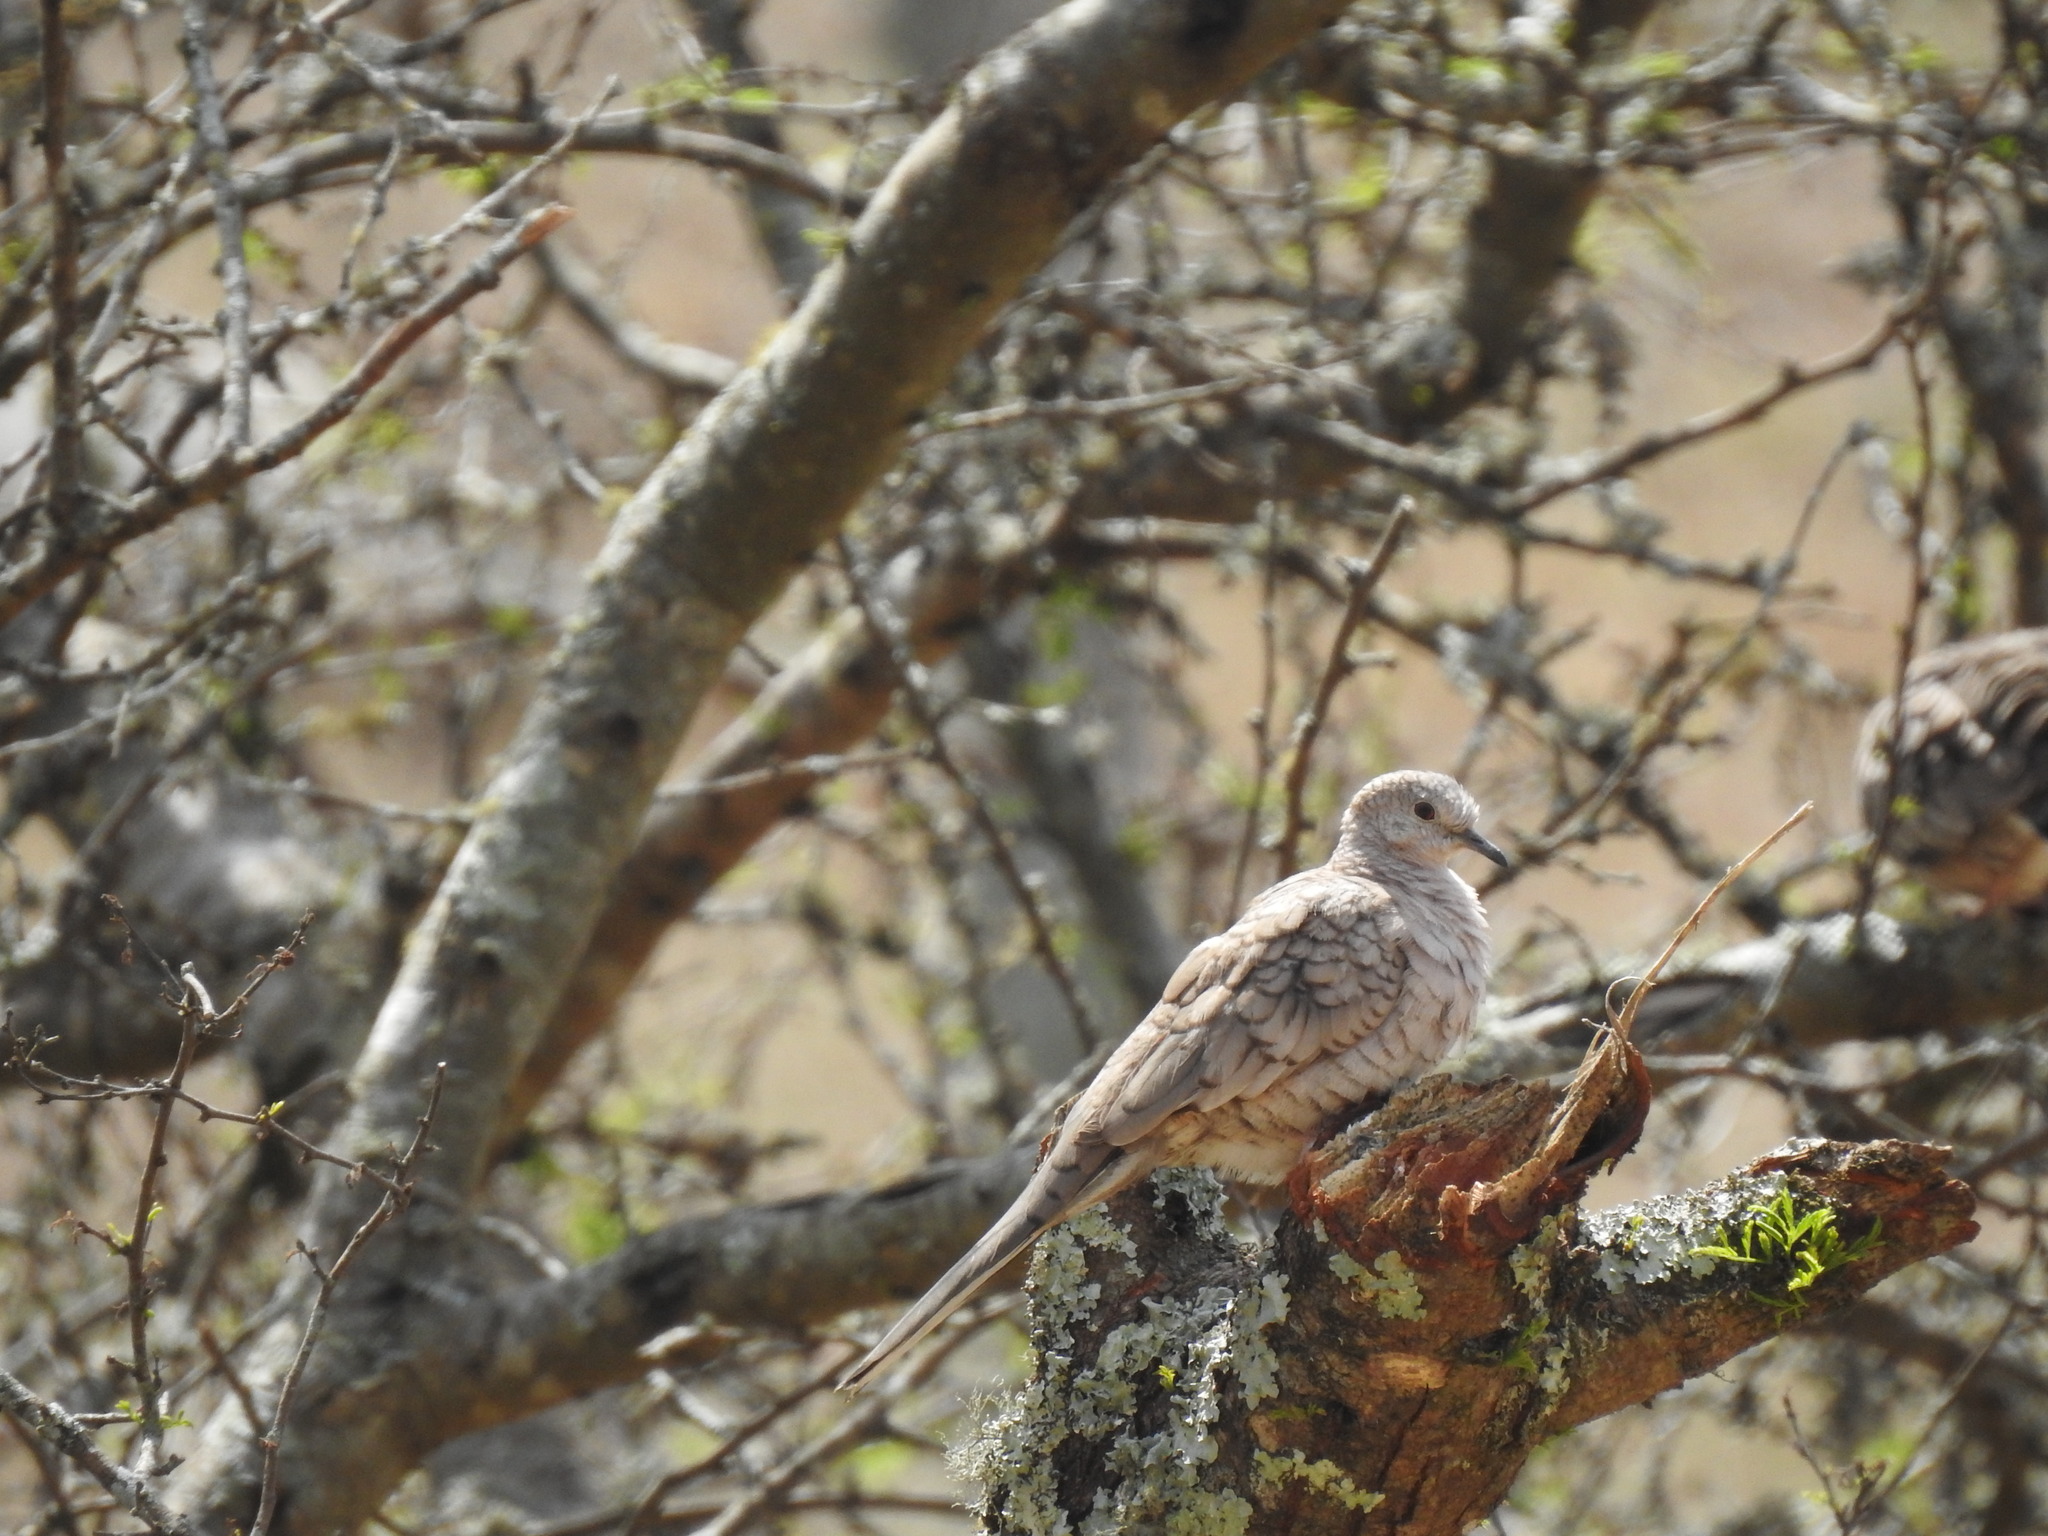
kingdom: Animalia
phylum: Chordata
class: Aves
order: Columbiformes
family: Columbidae
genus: Columbina
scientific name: Columbina inca
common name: Inca dove
